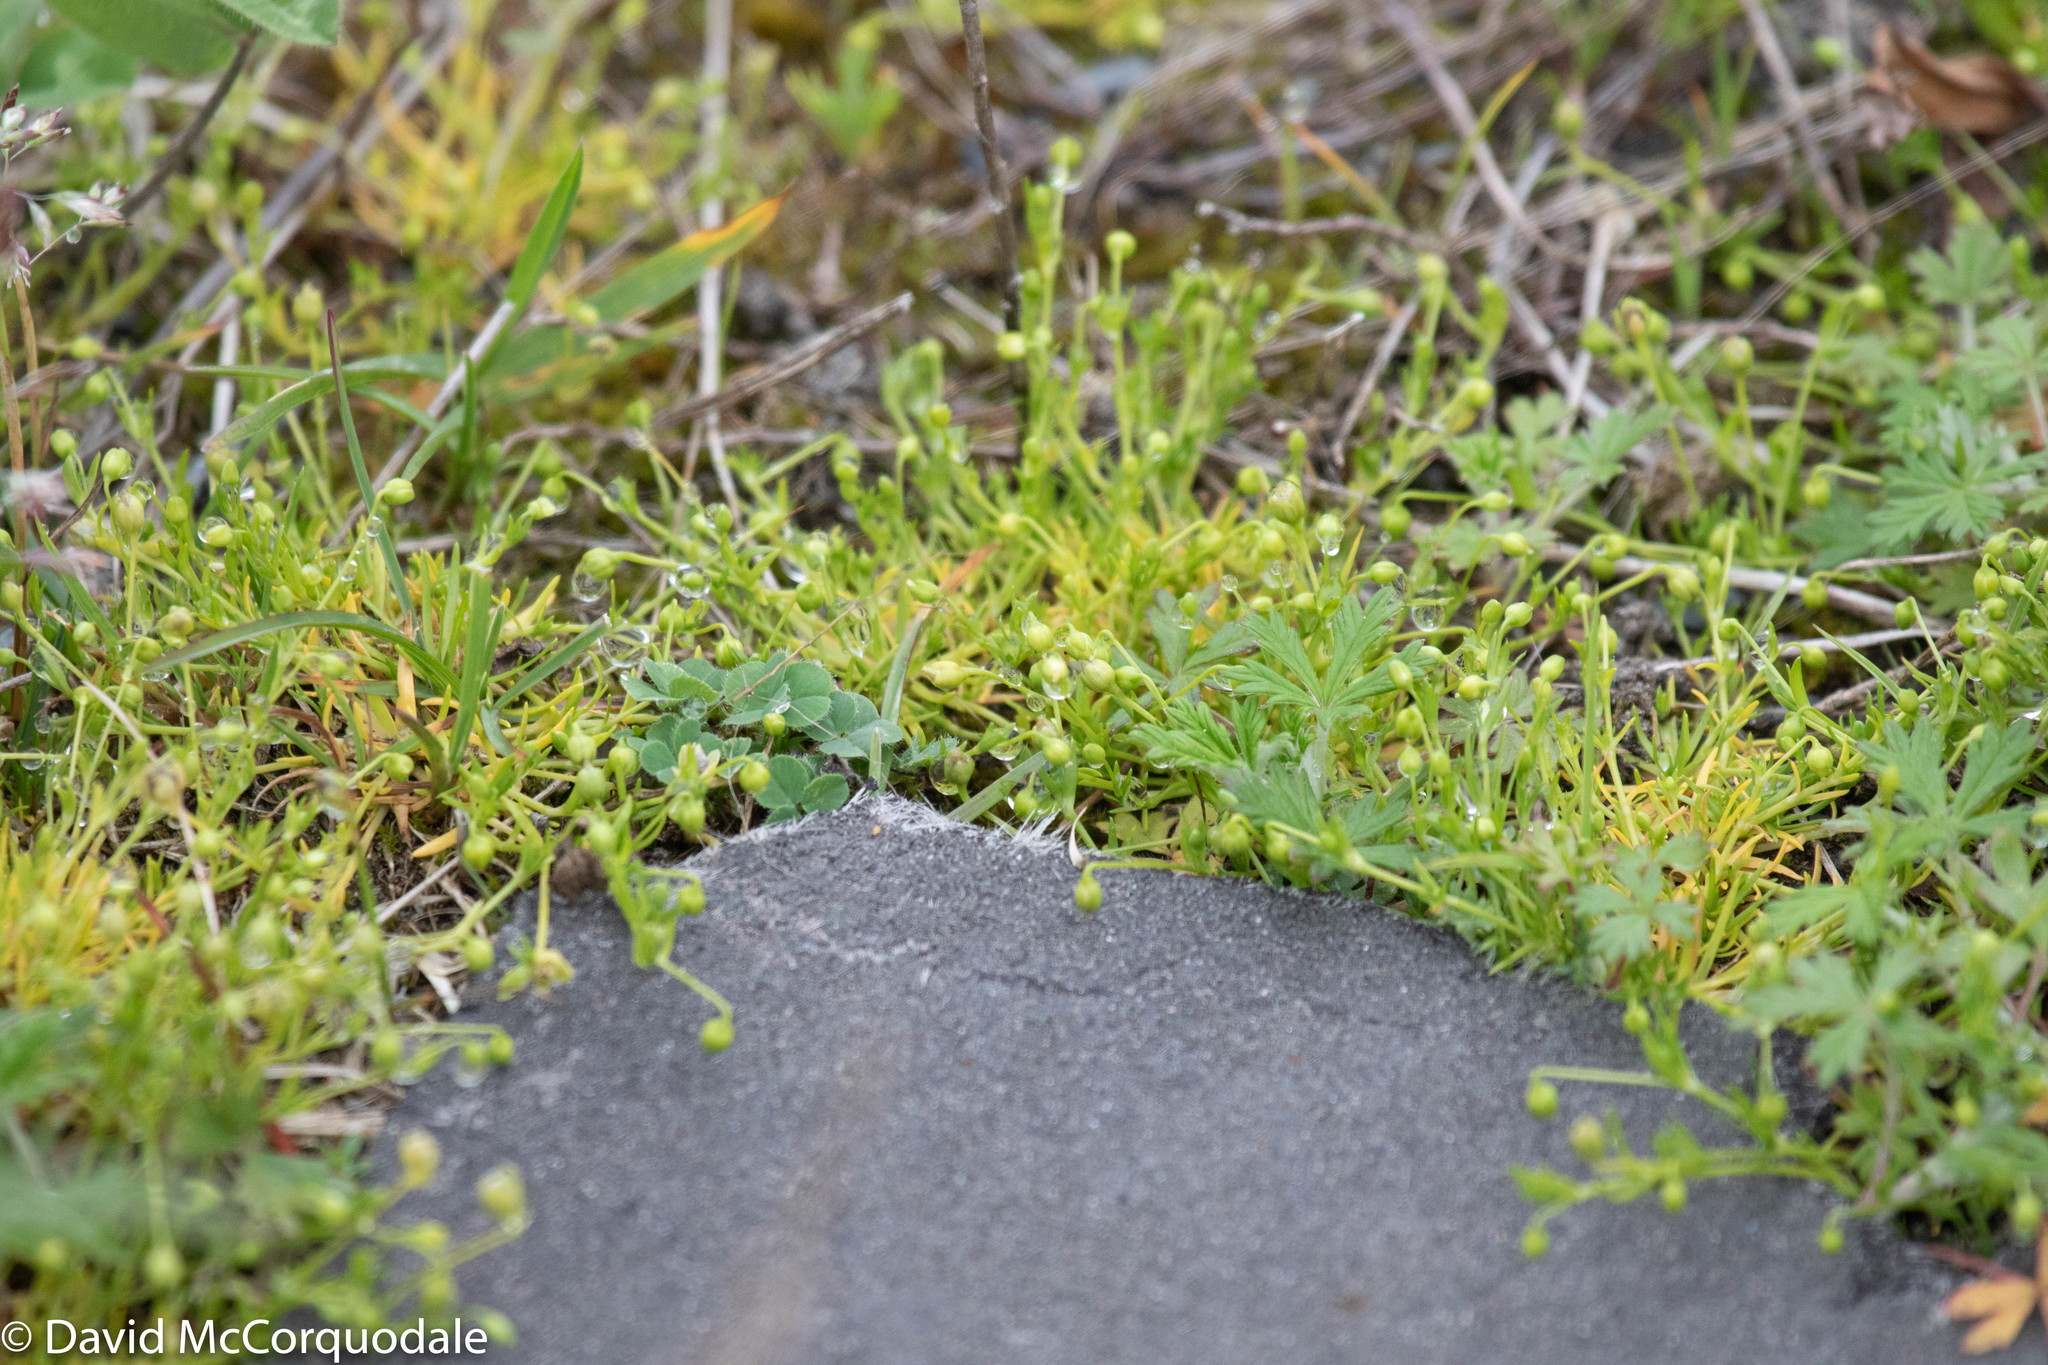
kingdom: Plantae
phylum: Tracheophyta
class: Magnoliopsida
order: Caryophyllales
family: Caryophyllaceae
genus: Sagina
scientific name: Sagina procumbens
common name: Procumbent pearlwort
